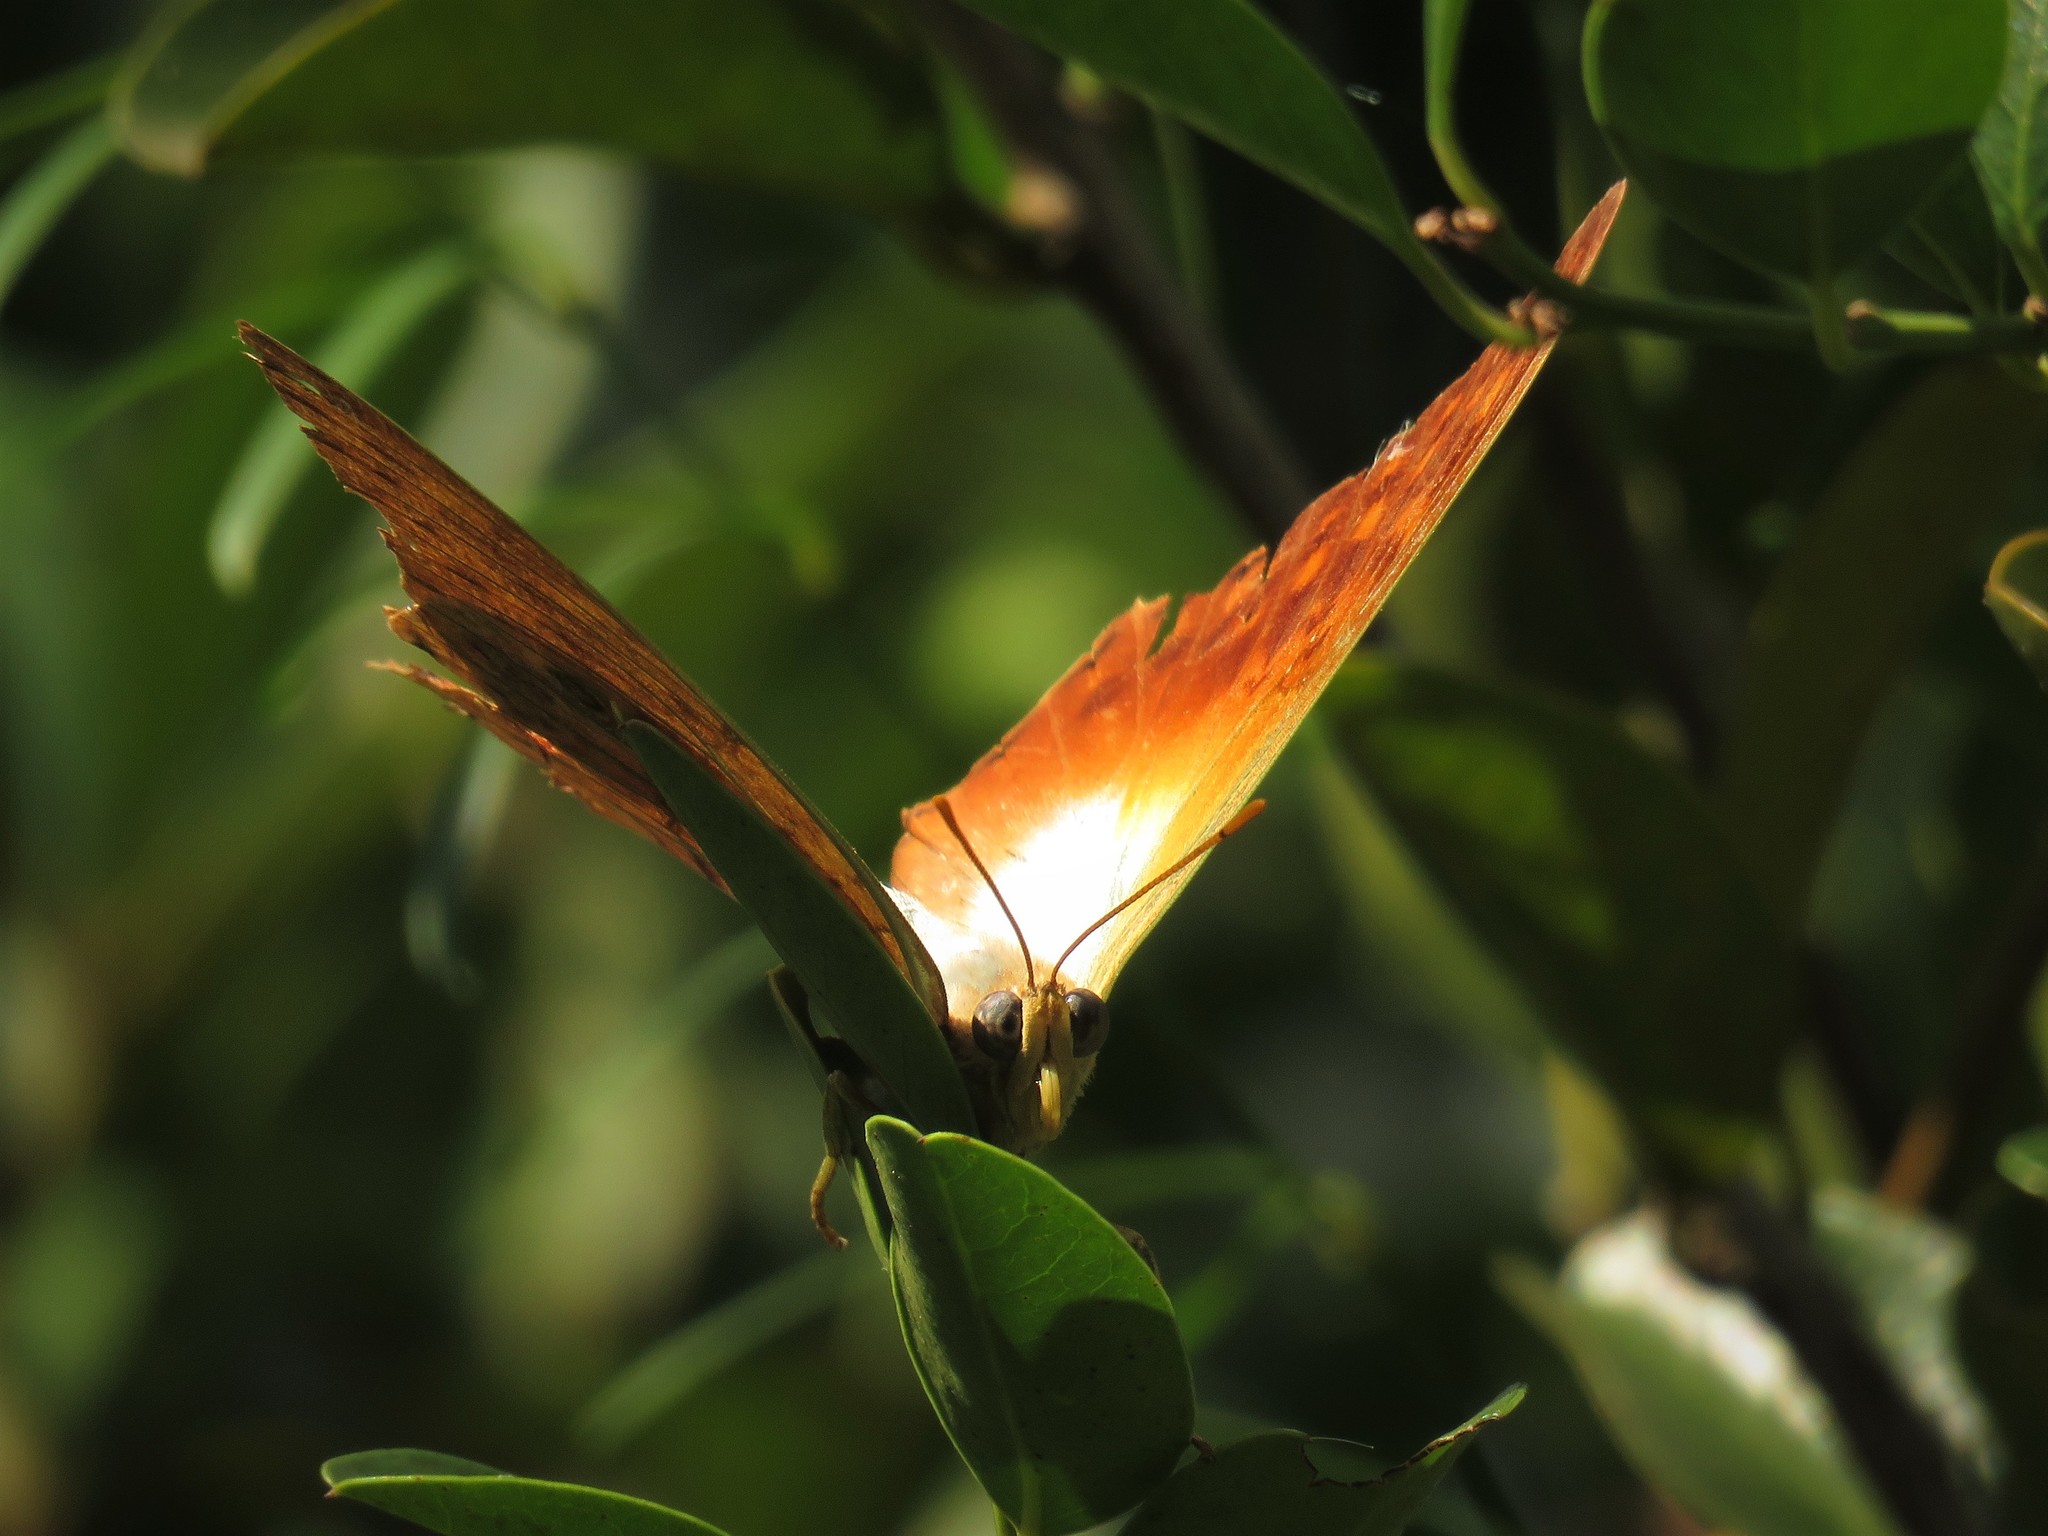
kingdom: Animalia
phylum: Arthropoda
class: Insecta
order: Lepidoptera
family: Nymphalidae
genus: Charaxes
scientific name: Charaxes varanes
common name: Common pearl charaxes
